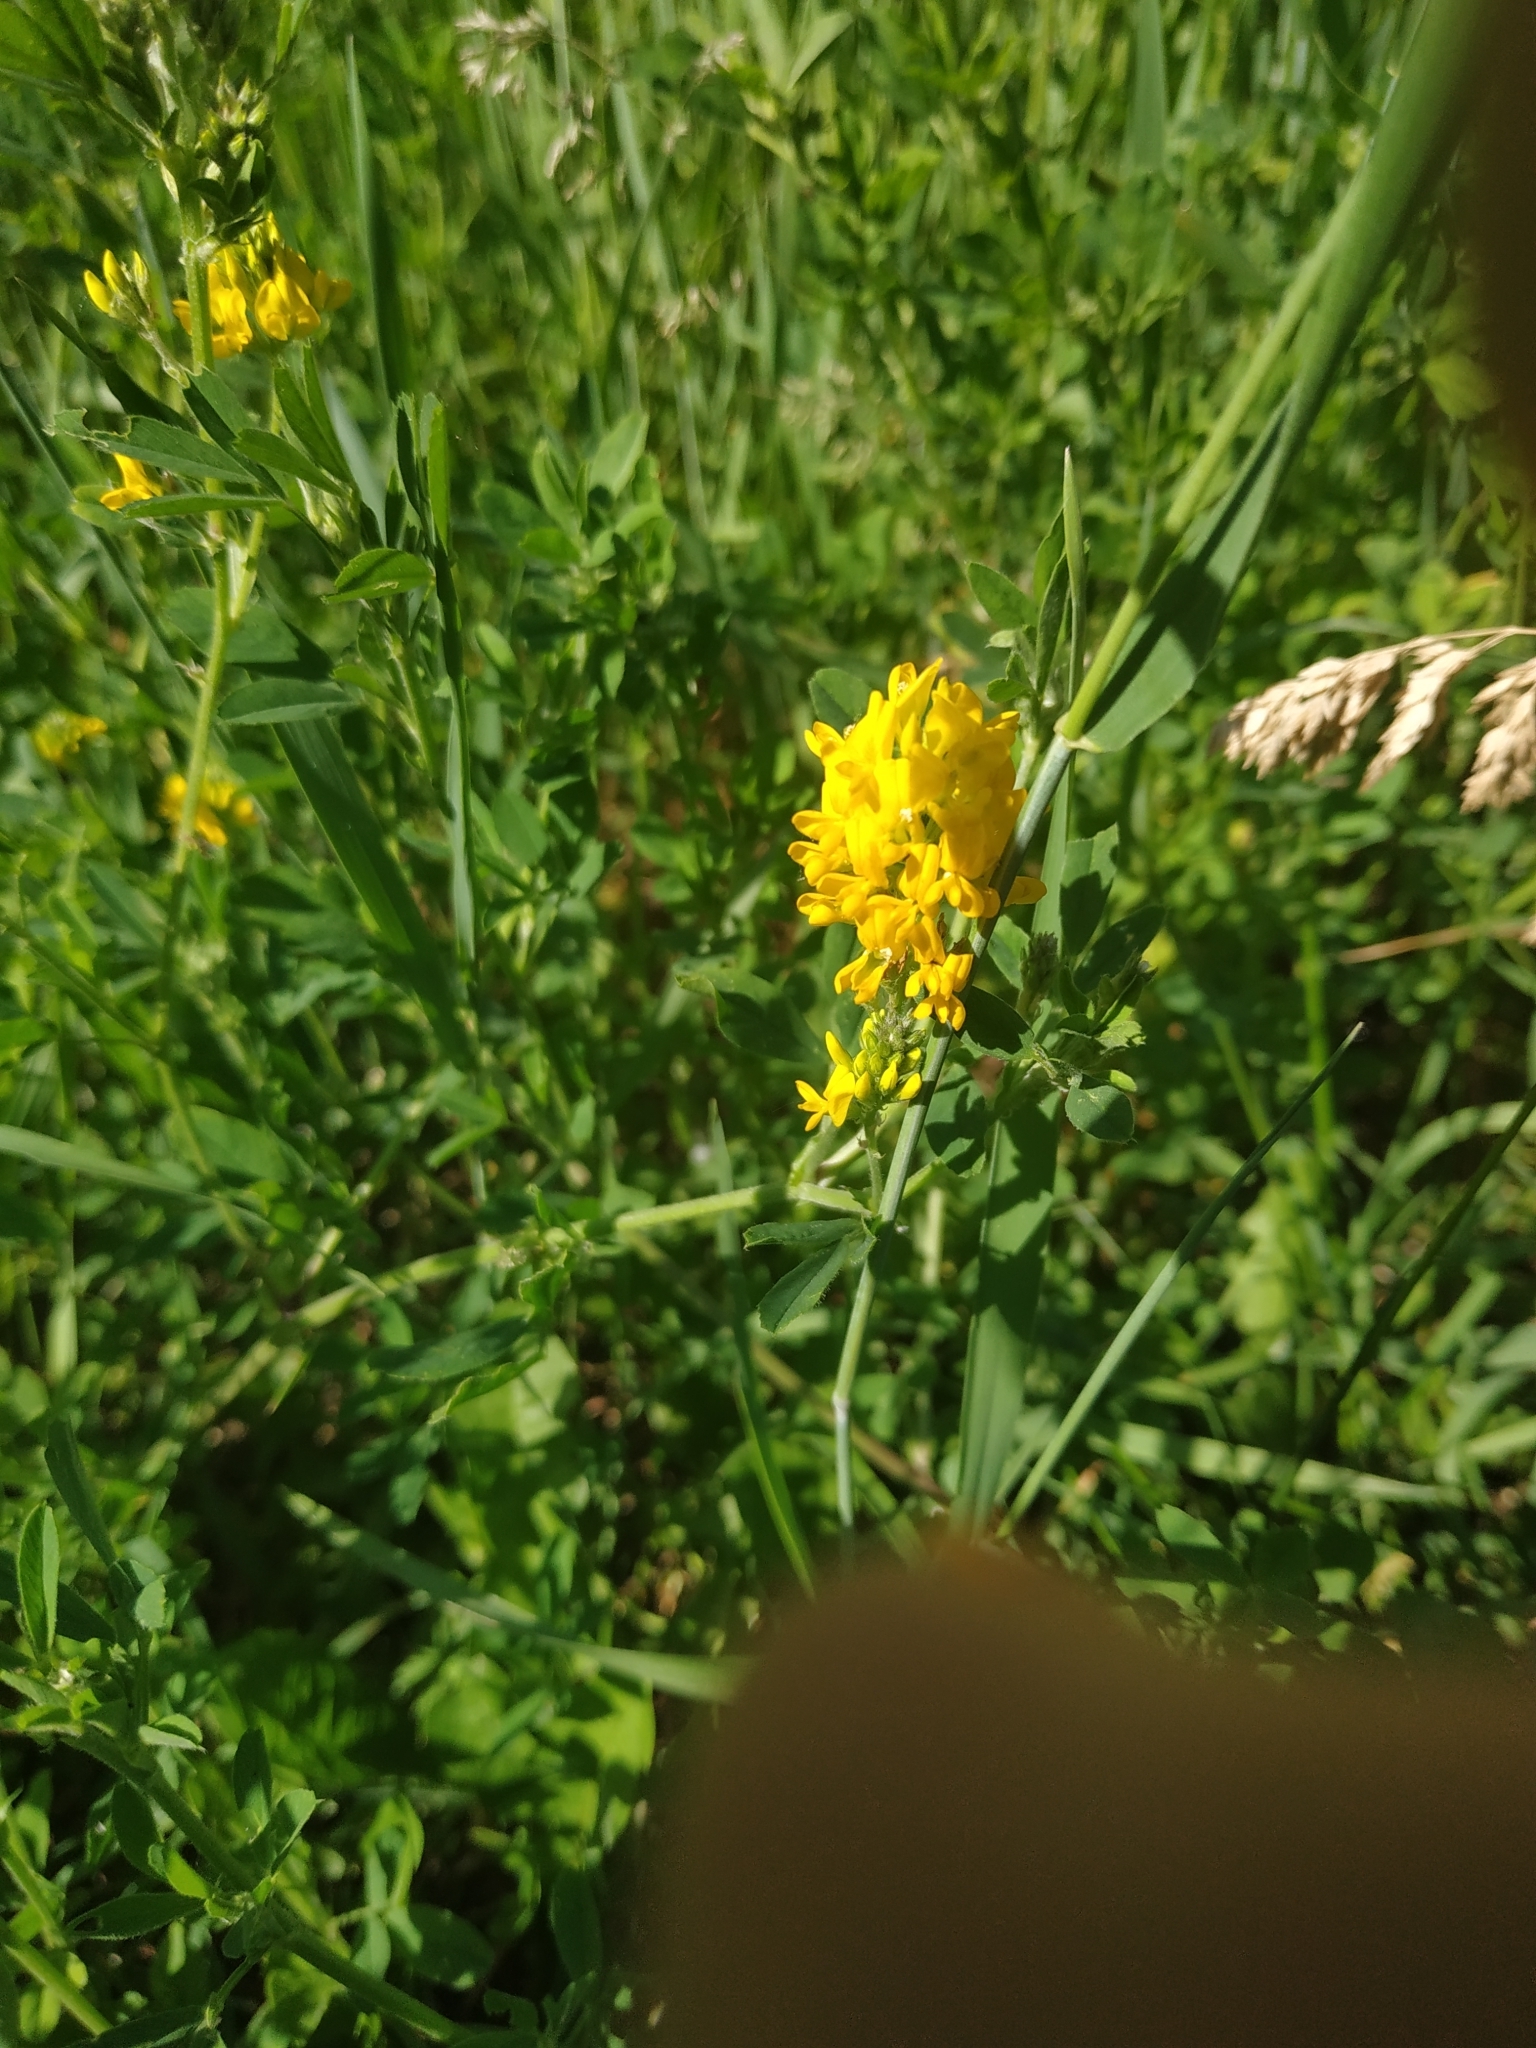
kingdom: Plantae
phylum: Tracheophyta
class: Magnoliopsida
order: Fabales
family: Fabaceae
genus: Medicago
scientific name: Medicago falcata
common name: Sickle medick
